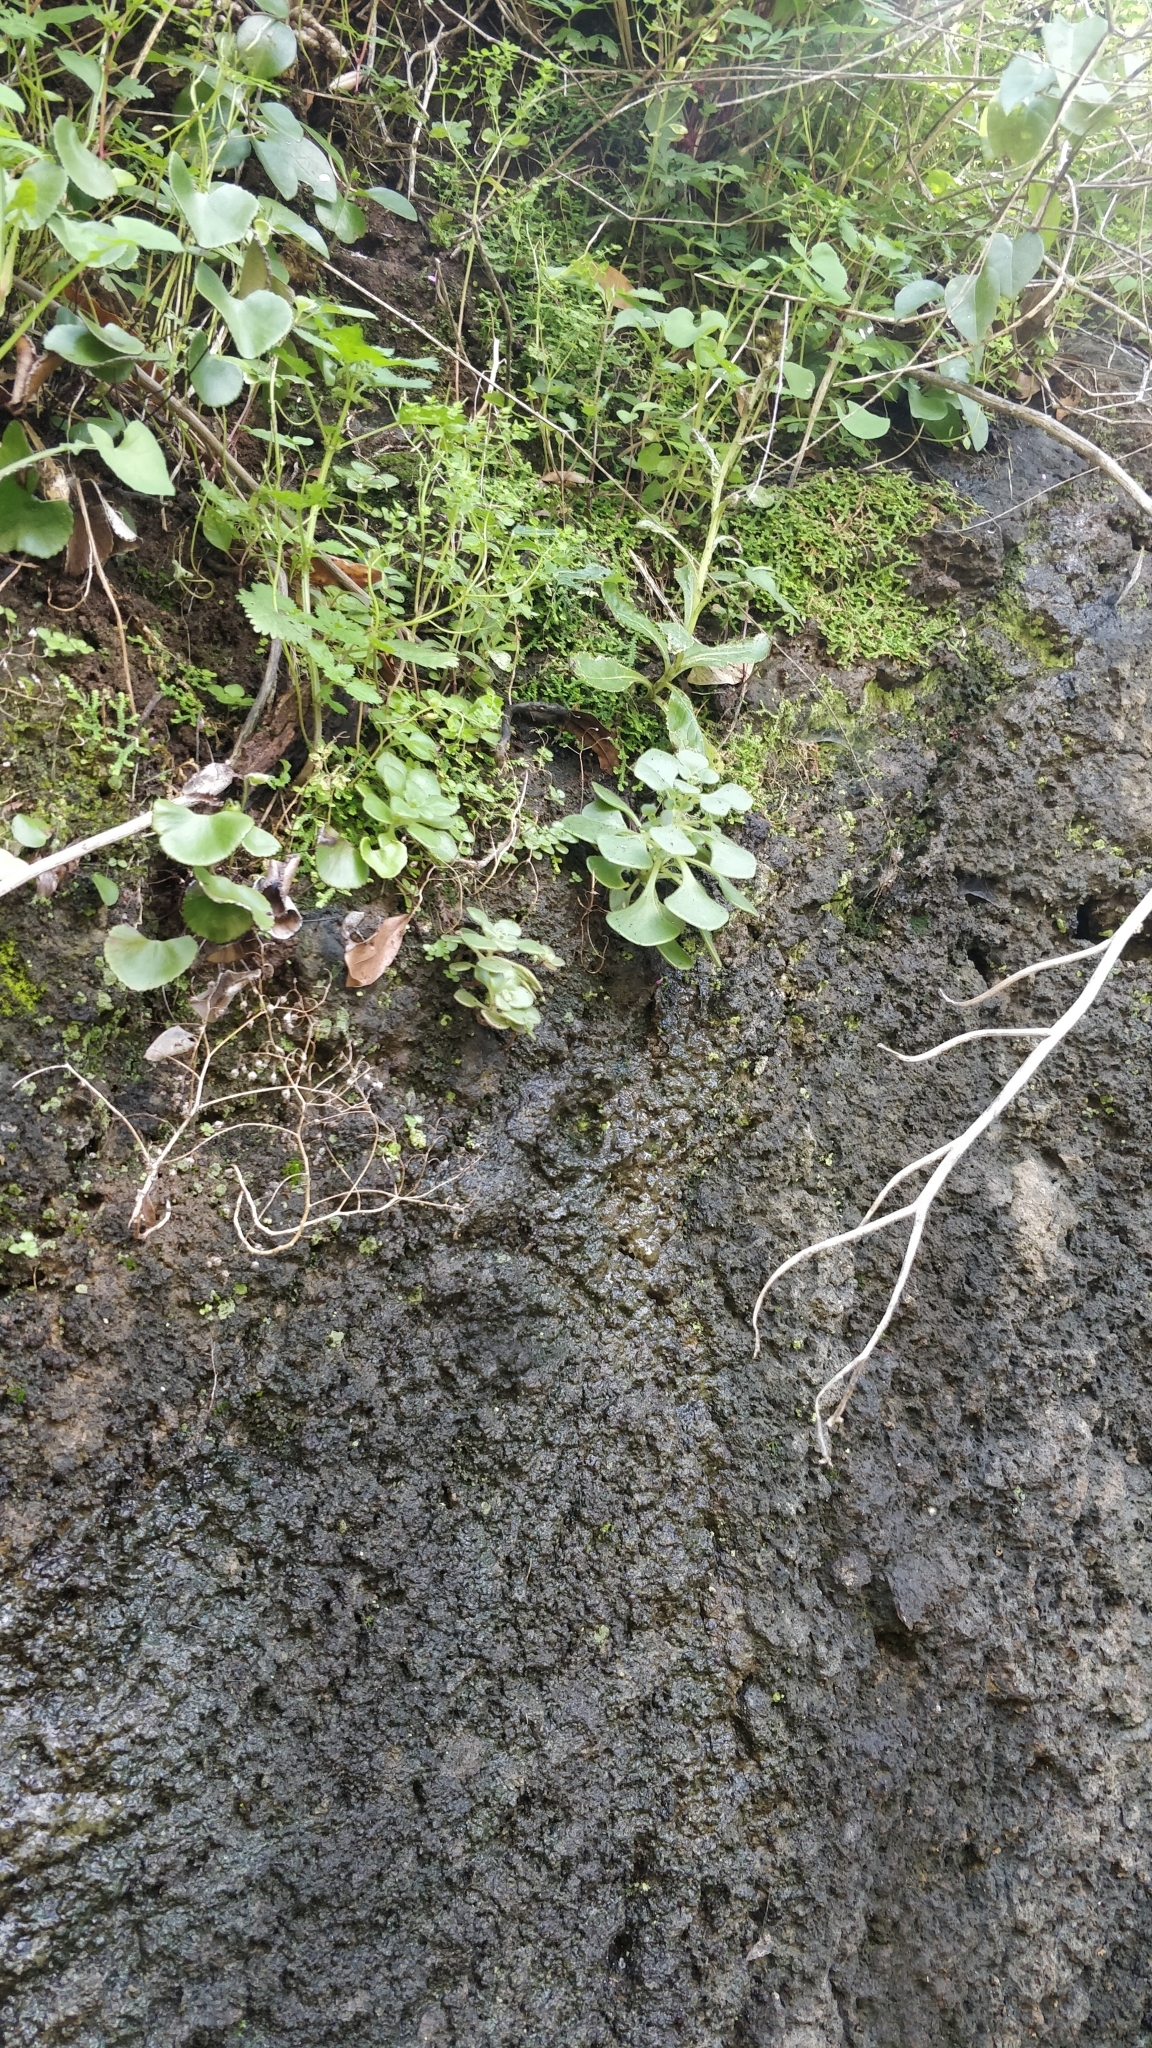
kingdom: Plantae
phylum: Tracheophyta
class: Magnoliopsida
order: Saxifragales
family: Crassulaceae
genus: Aichryson
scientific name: Aichryson villosum
